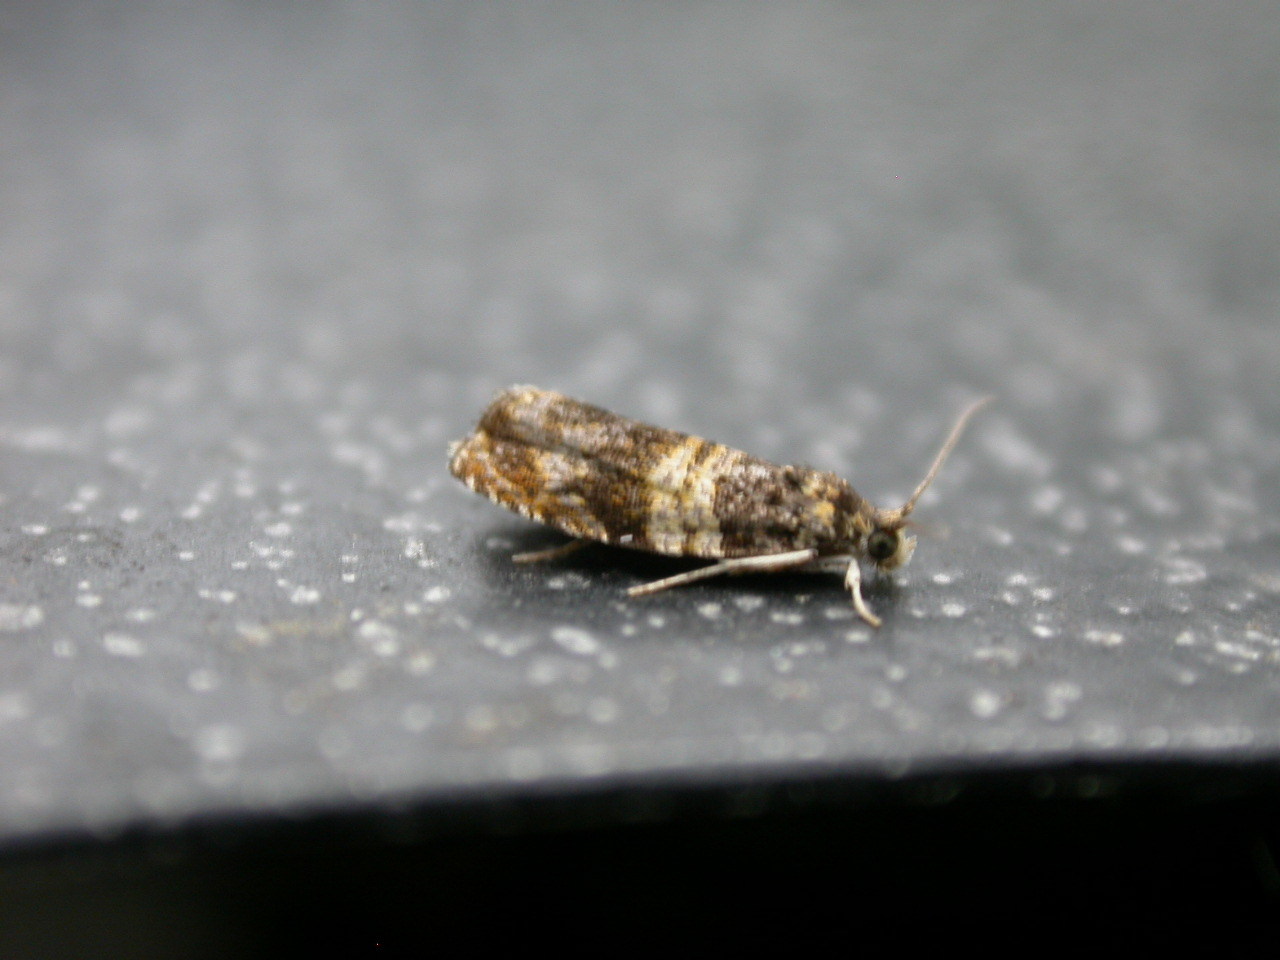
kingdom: Animalia
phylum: Arthropoda
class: Insecta
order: Lepidoptera
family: Tortricidae
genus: Celypha
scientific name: Celypha aurofasciana
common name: Moss marble
